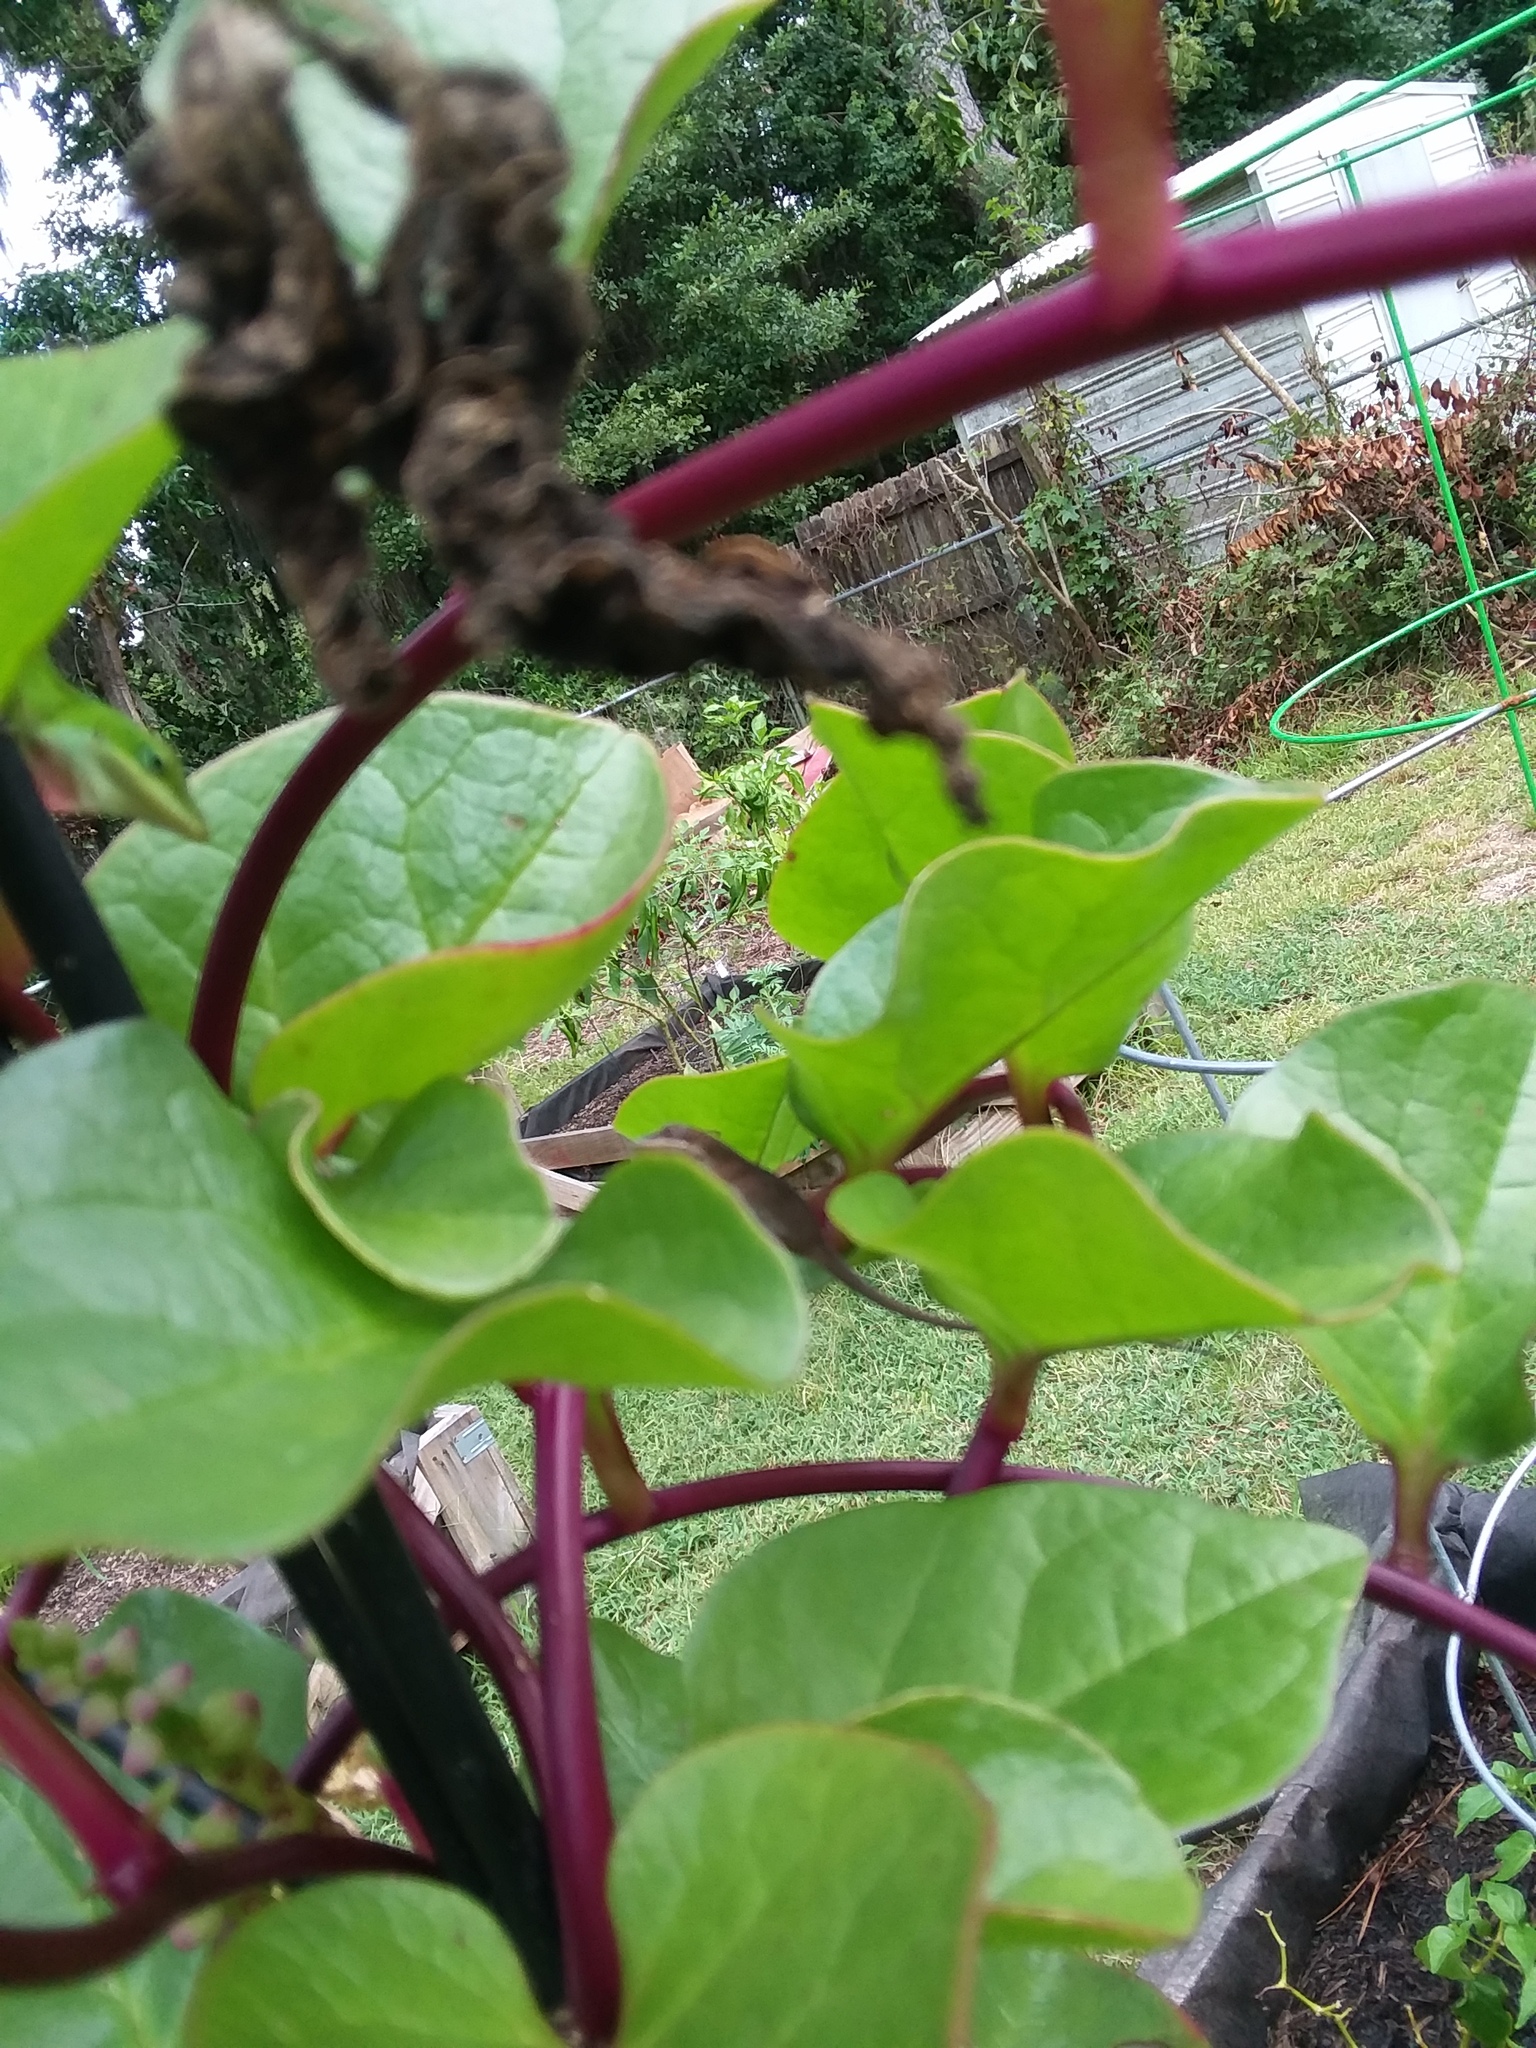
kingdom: Animalia
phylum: Chordata
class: Squamata
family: Dactyloidae
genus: Anolis
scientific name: Anolis carolinensis
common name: Green anole
